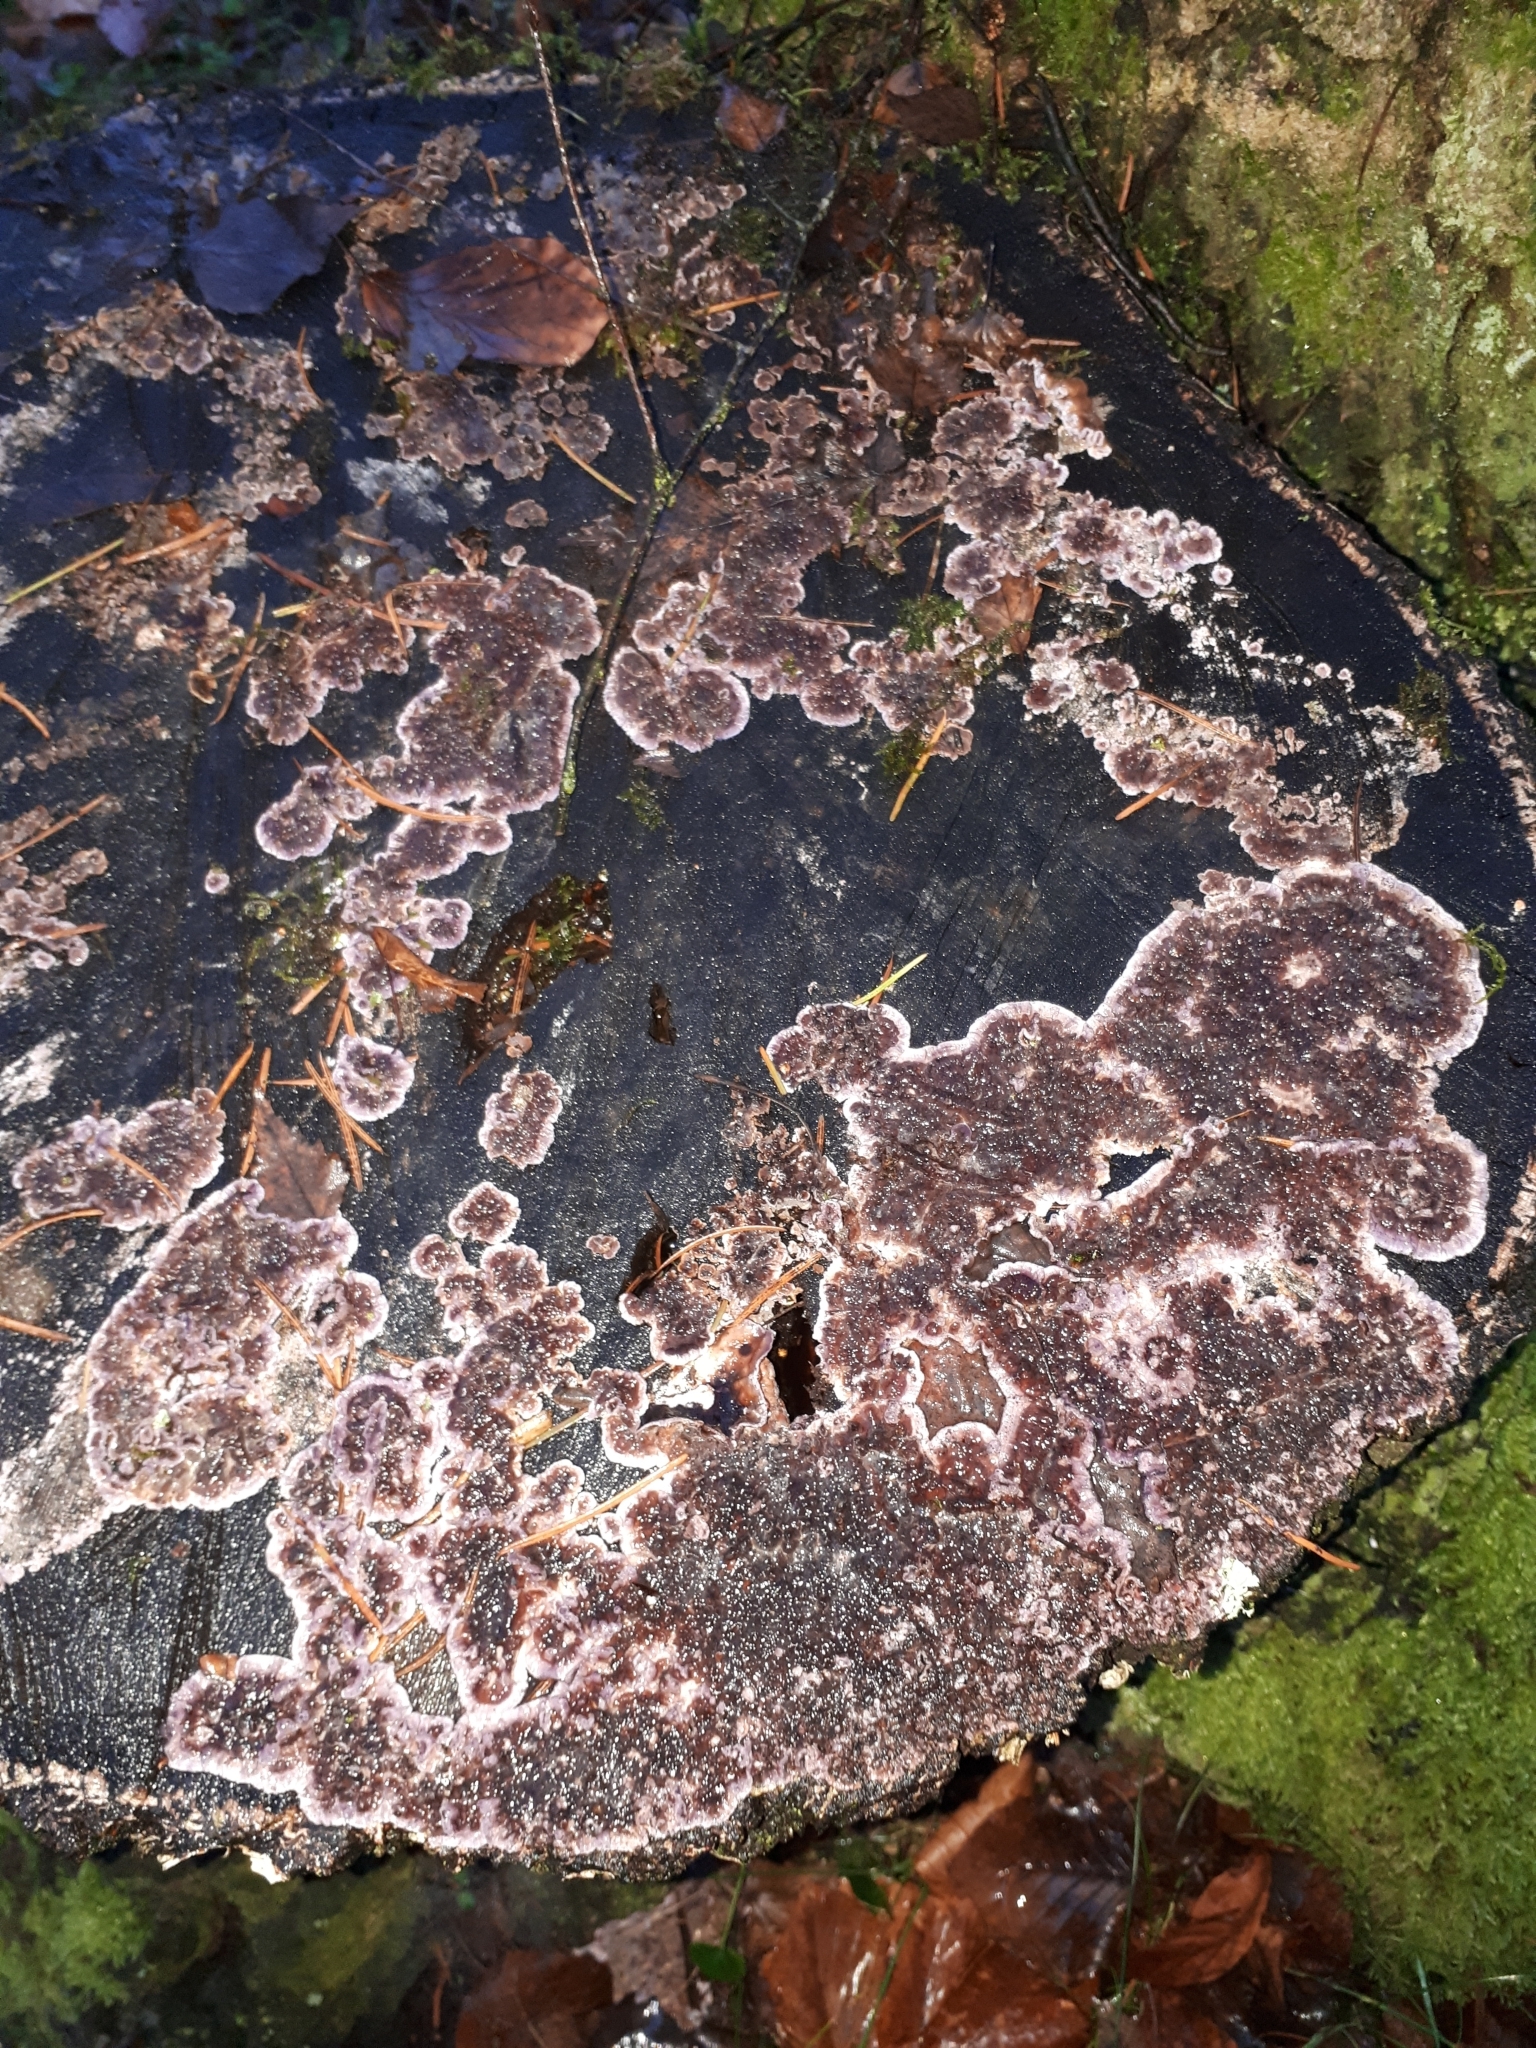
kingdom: Fungi
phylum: Basidiomycota
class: Agaricomycetes
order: Agaricales
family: Cyphellaceae
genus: Chondrostereum
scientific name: Chondrostereum purpureum
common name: Silver leaf disease
